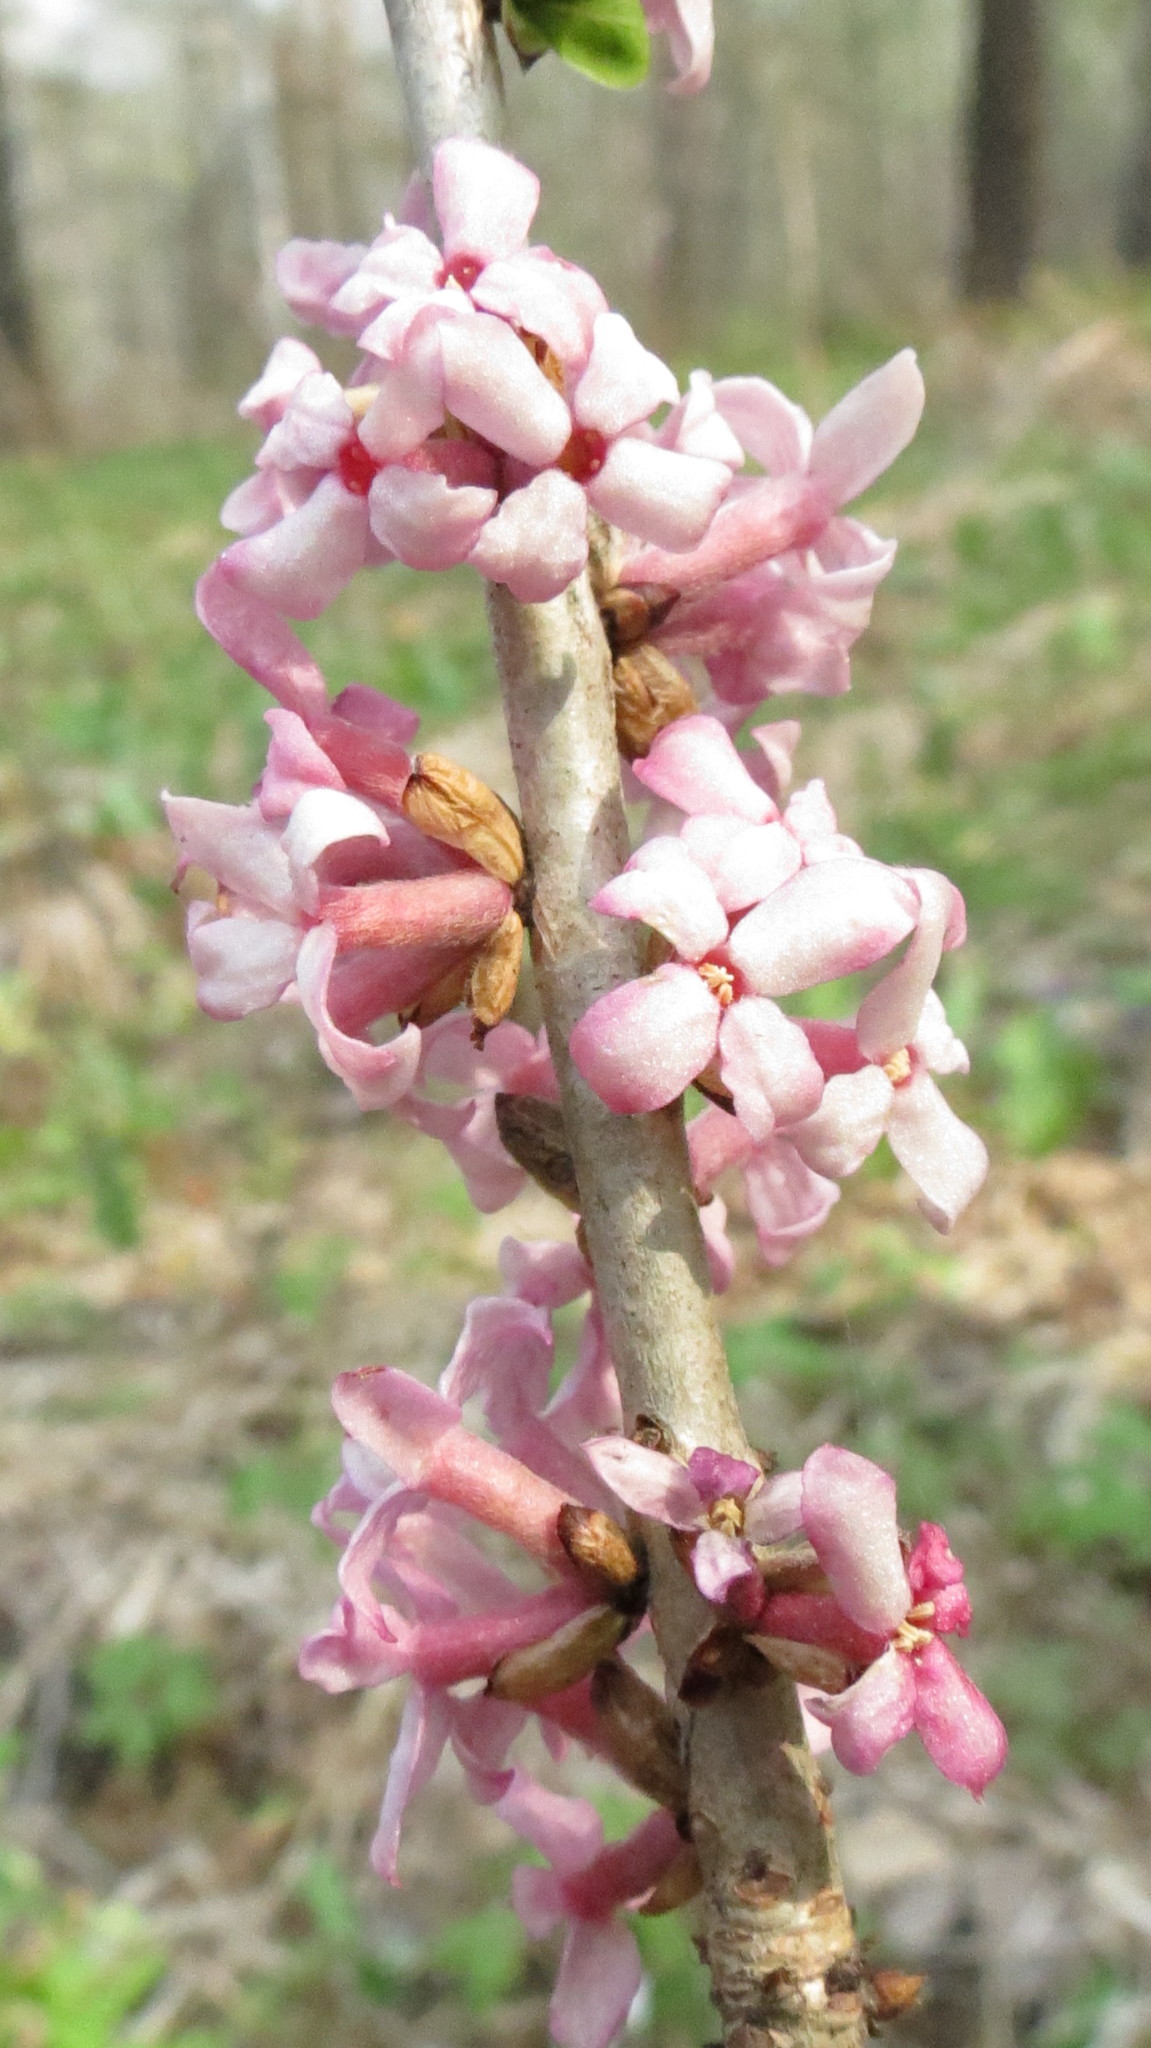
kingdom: Plantae
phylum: Tracheophyta
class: Magnoliopsida
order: Malvales
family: Thymelaeaceae
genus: Daphne
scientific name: Daphne mezereum
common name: Mezereon
